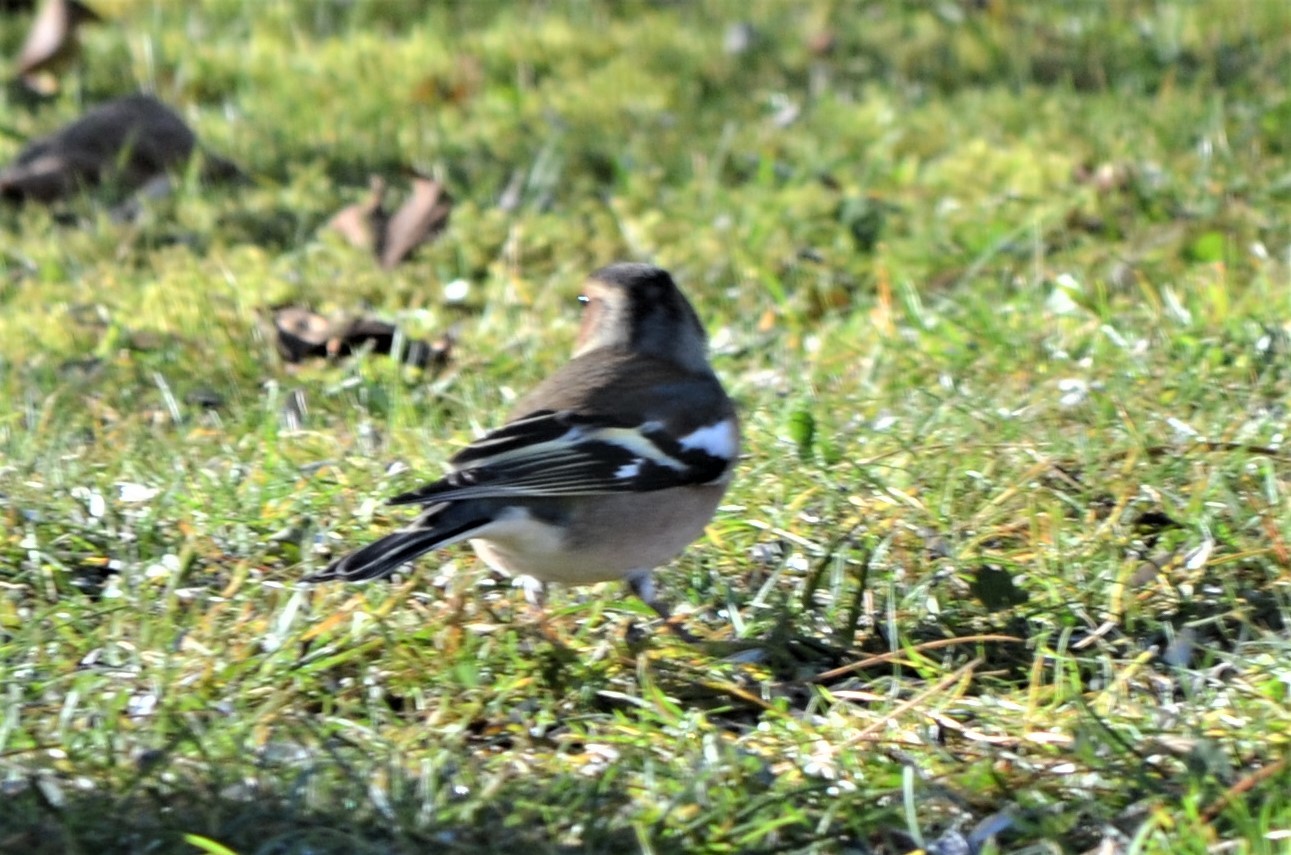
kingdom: Animalia
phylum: Chordata
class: Aves
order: Passeriformes
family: Fringillidae
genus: Fringilla
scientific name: Fringilla coelebs
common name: Common chaffinch
